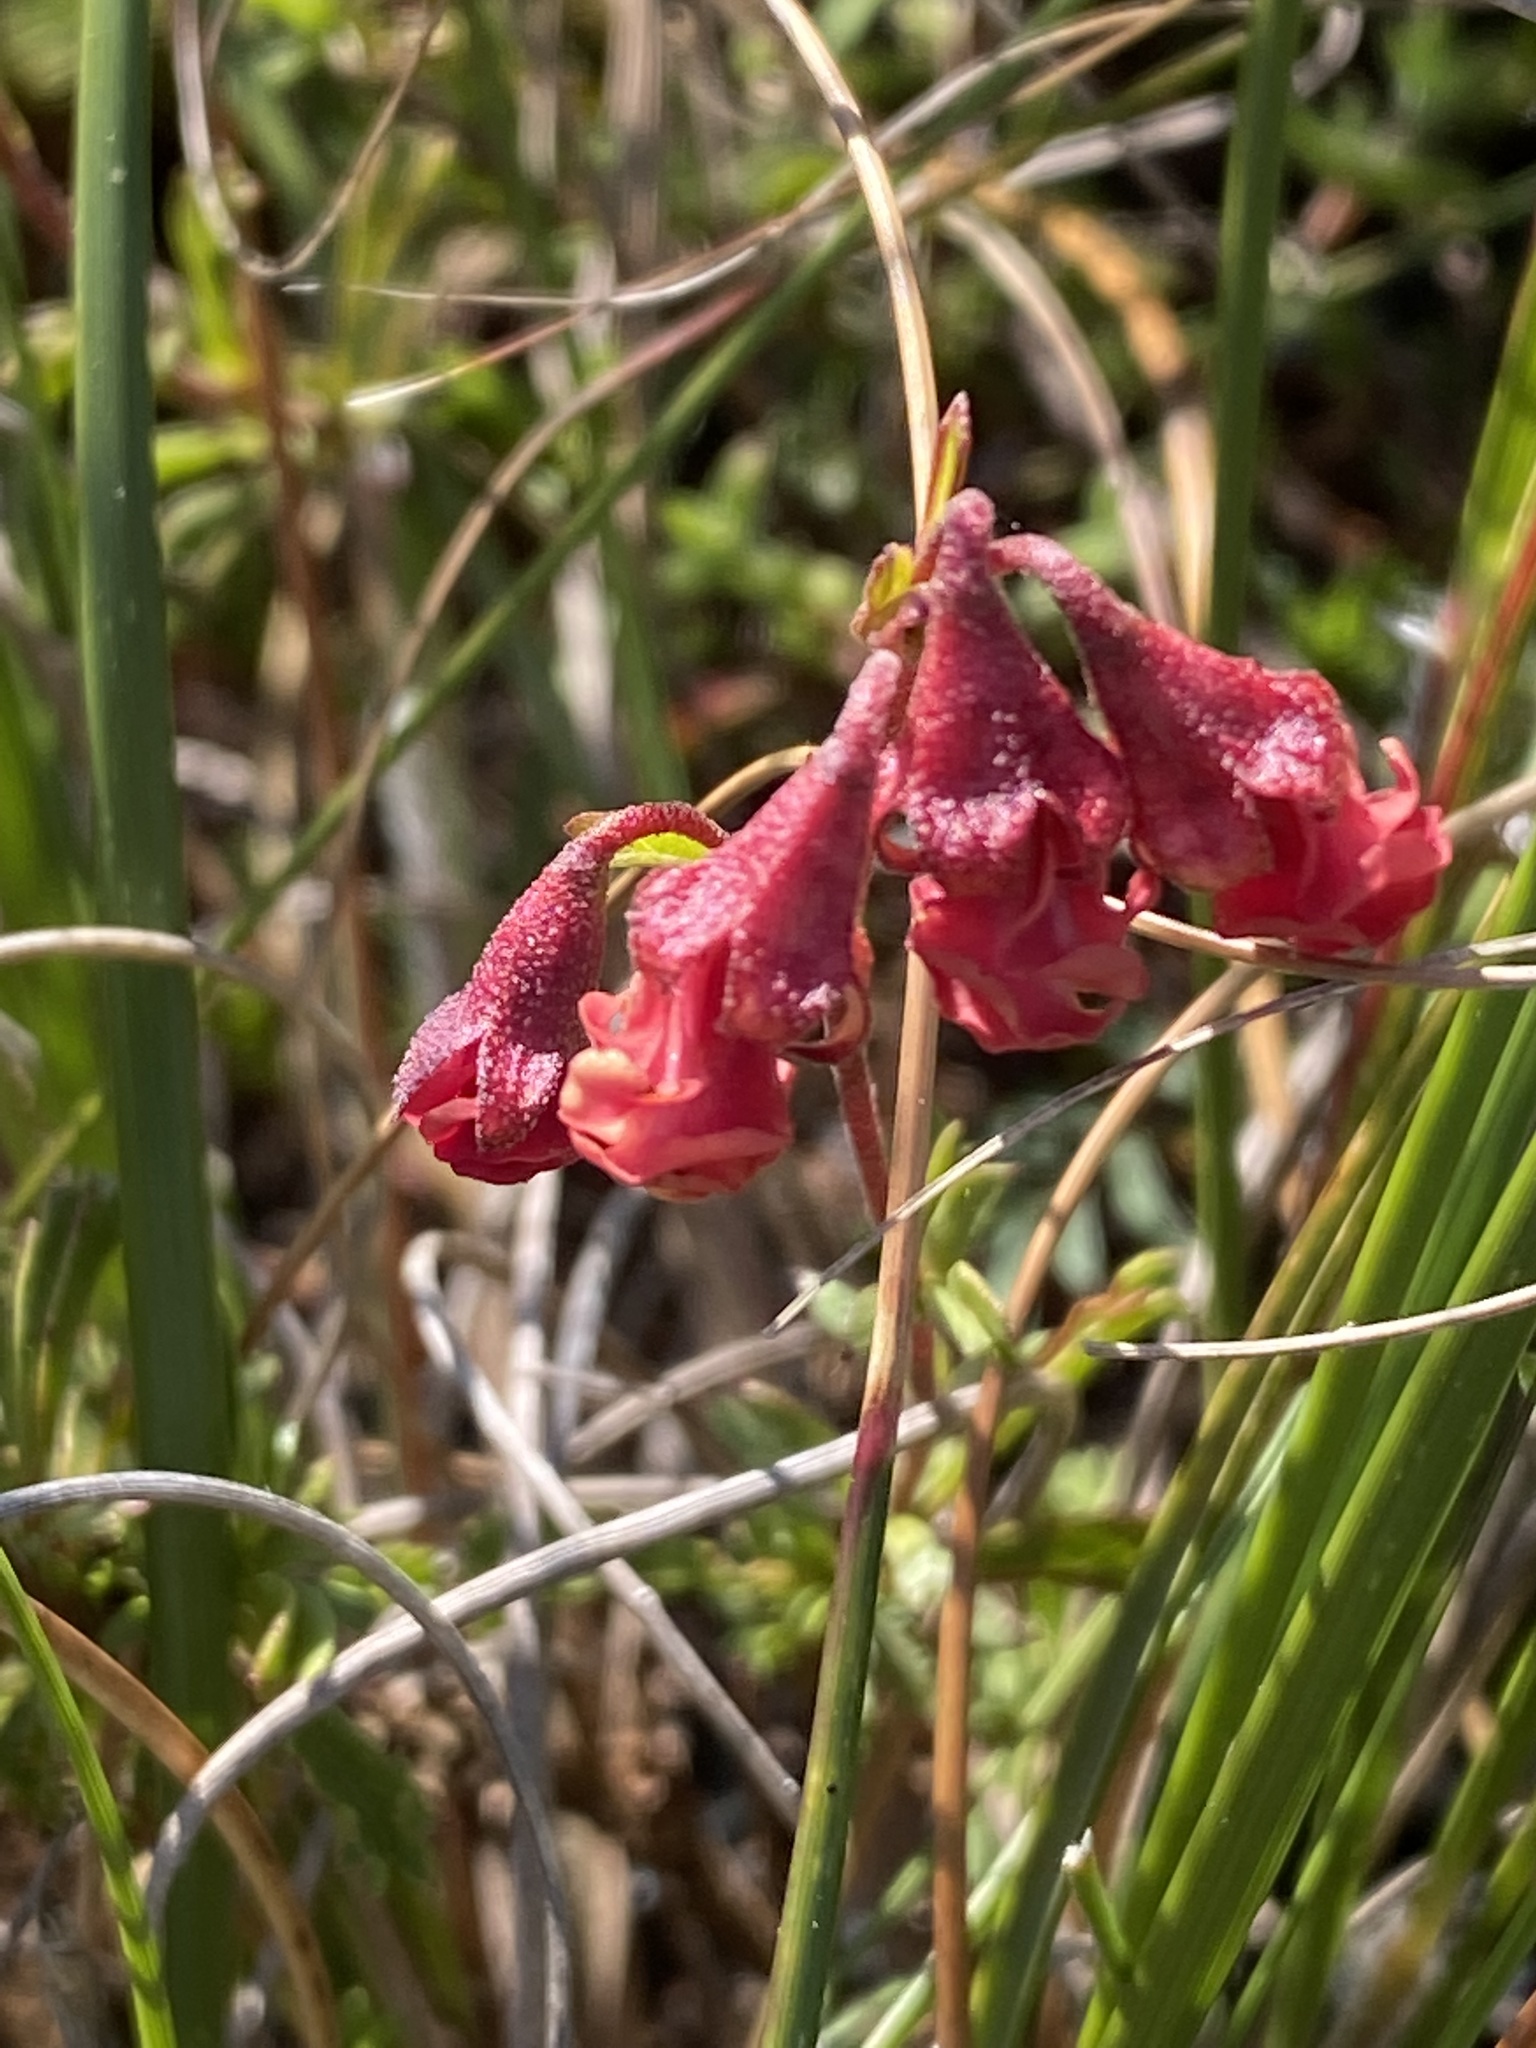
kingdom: Plantae
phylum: Tracheophyta
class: Magnoliopsida
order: Malvales
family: Malvaceae
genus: Hermannia
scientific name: Hermannia flammea
